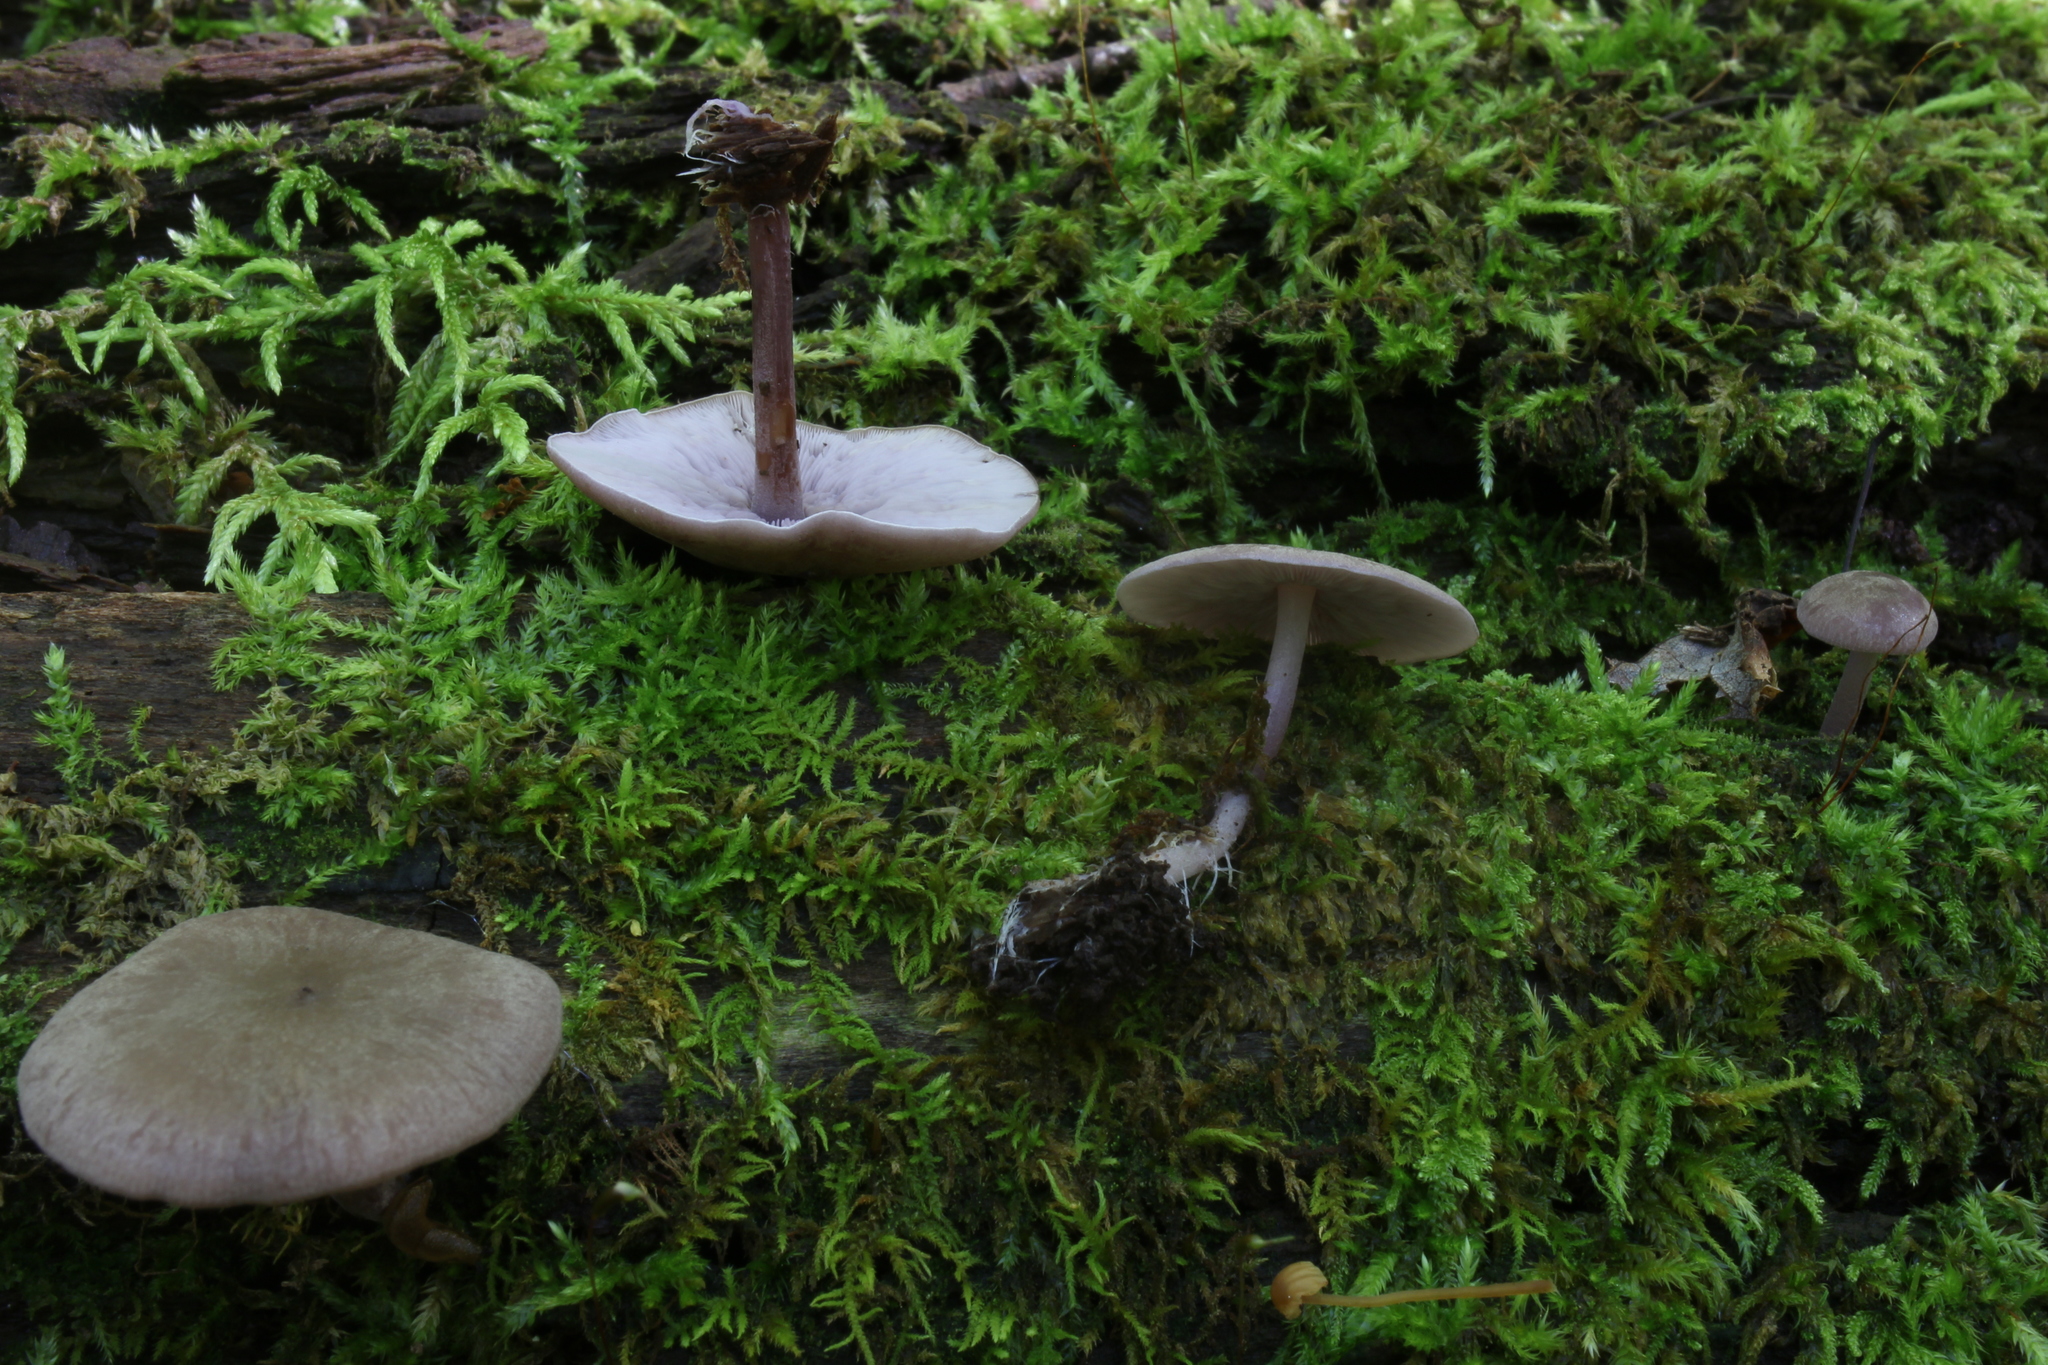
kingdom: Fungi
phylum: Basidiomycota
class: Agaricomycetes
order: Agaricales
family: Marasmiaceae
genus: Baeospora
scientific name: Baeospora myriadophylla
